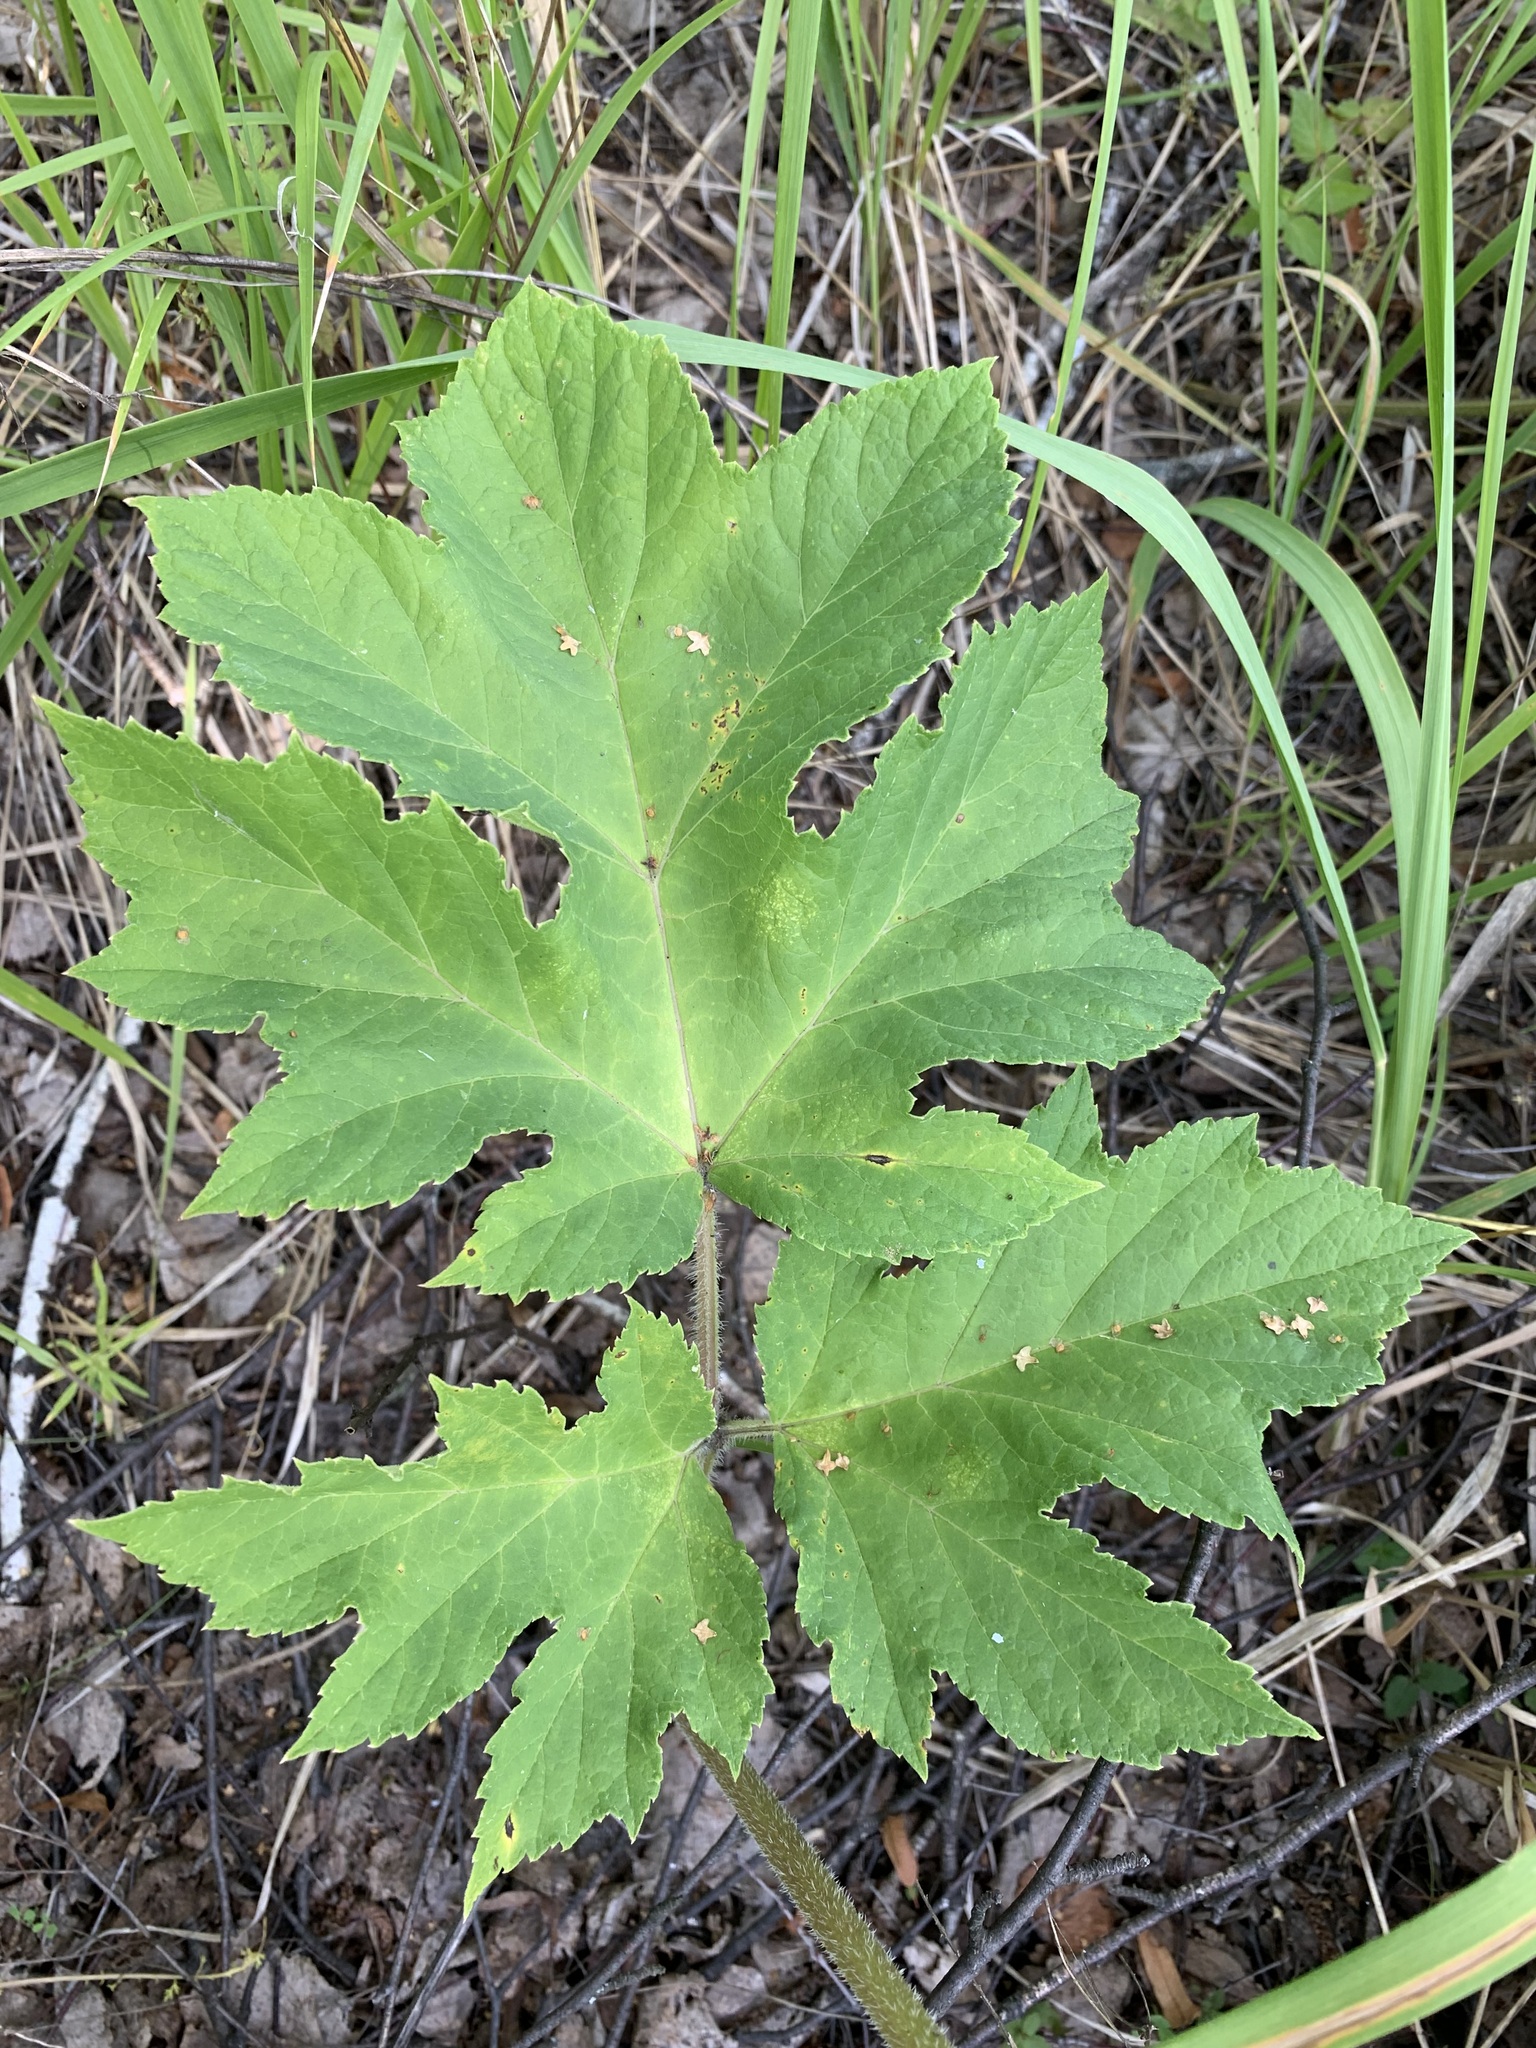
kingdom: Plantae
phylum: Tracheophyta
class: Magnoliopsida
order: Apiales
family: Apiaceae
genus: Heracleum
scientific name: Heracleum sphondylium
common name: Hogweed
